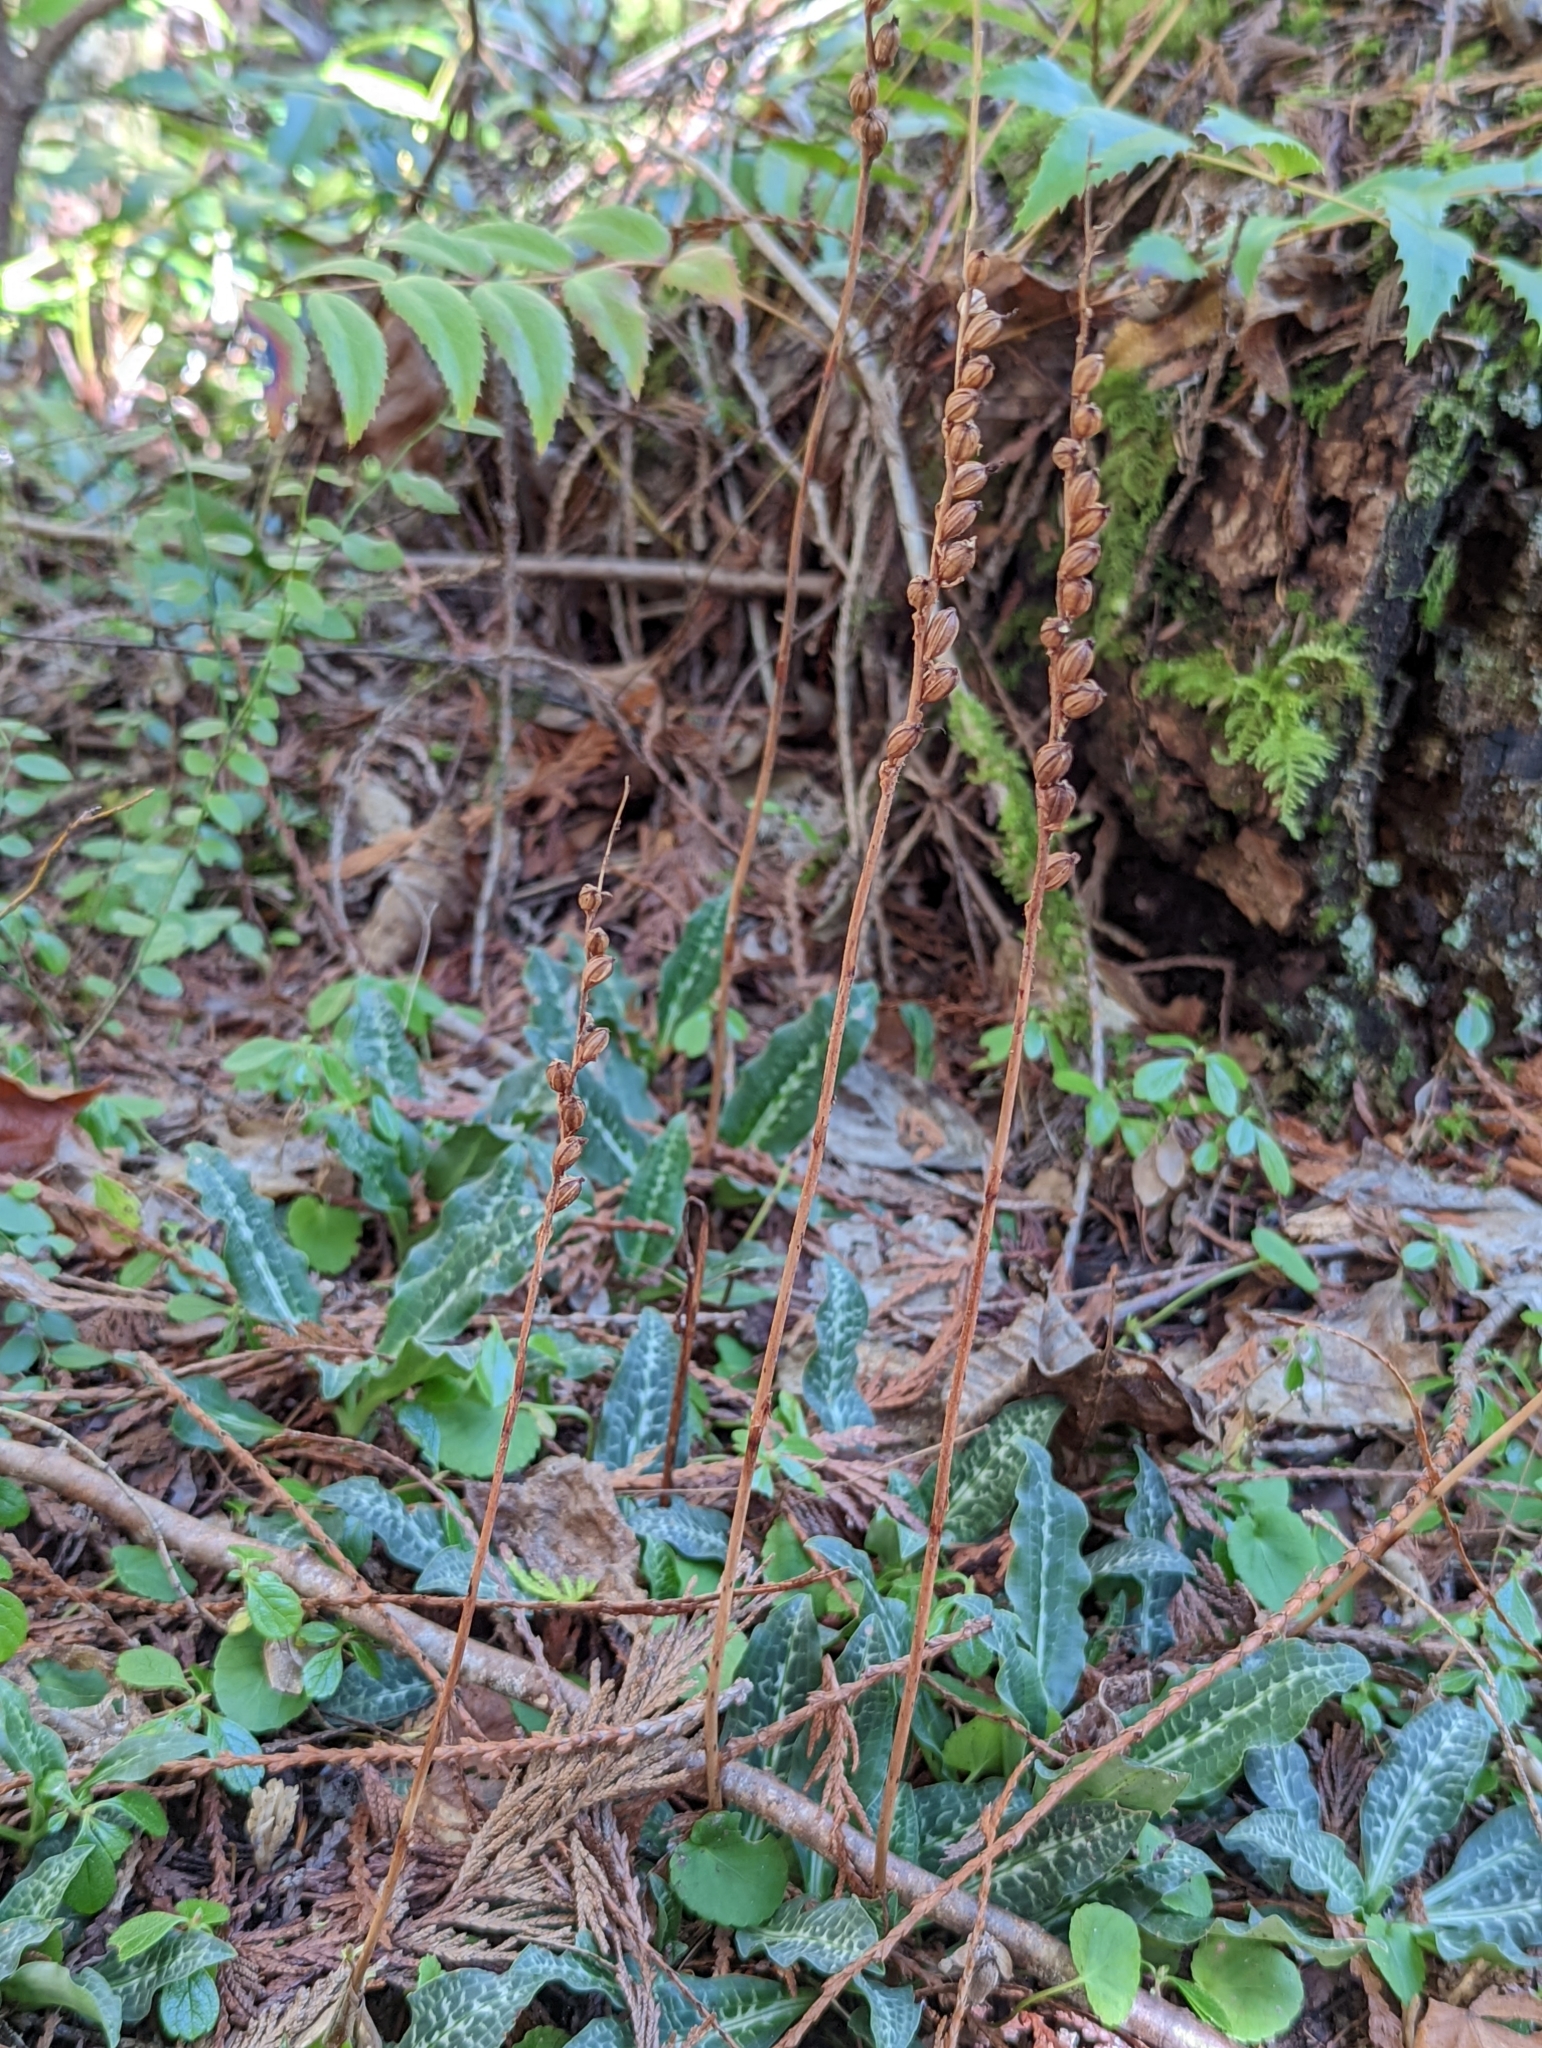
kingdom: Plantae
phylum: Tracheophyta
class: Liliopsida
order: Asparagales
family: Orchidaceae
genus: Goodyera
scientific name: Goodyera oblongifolia
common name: Giant rattlesnake-plantain
